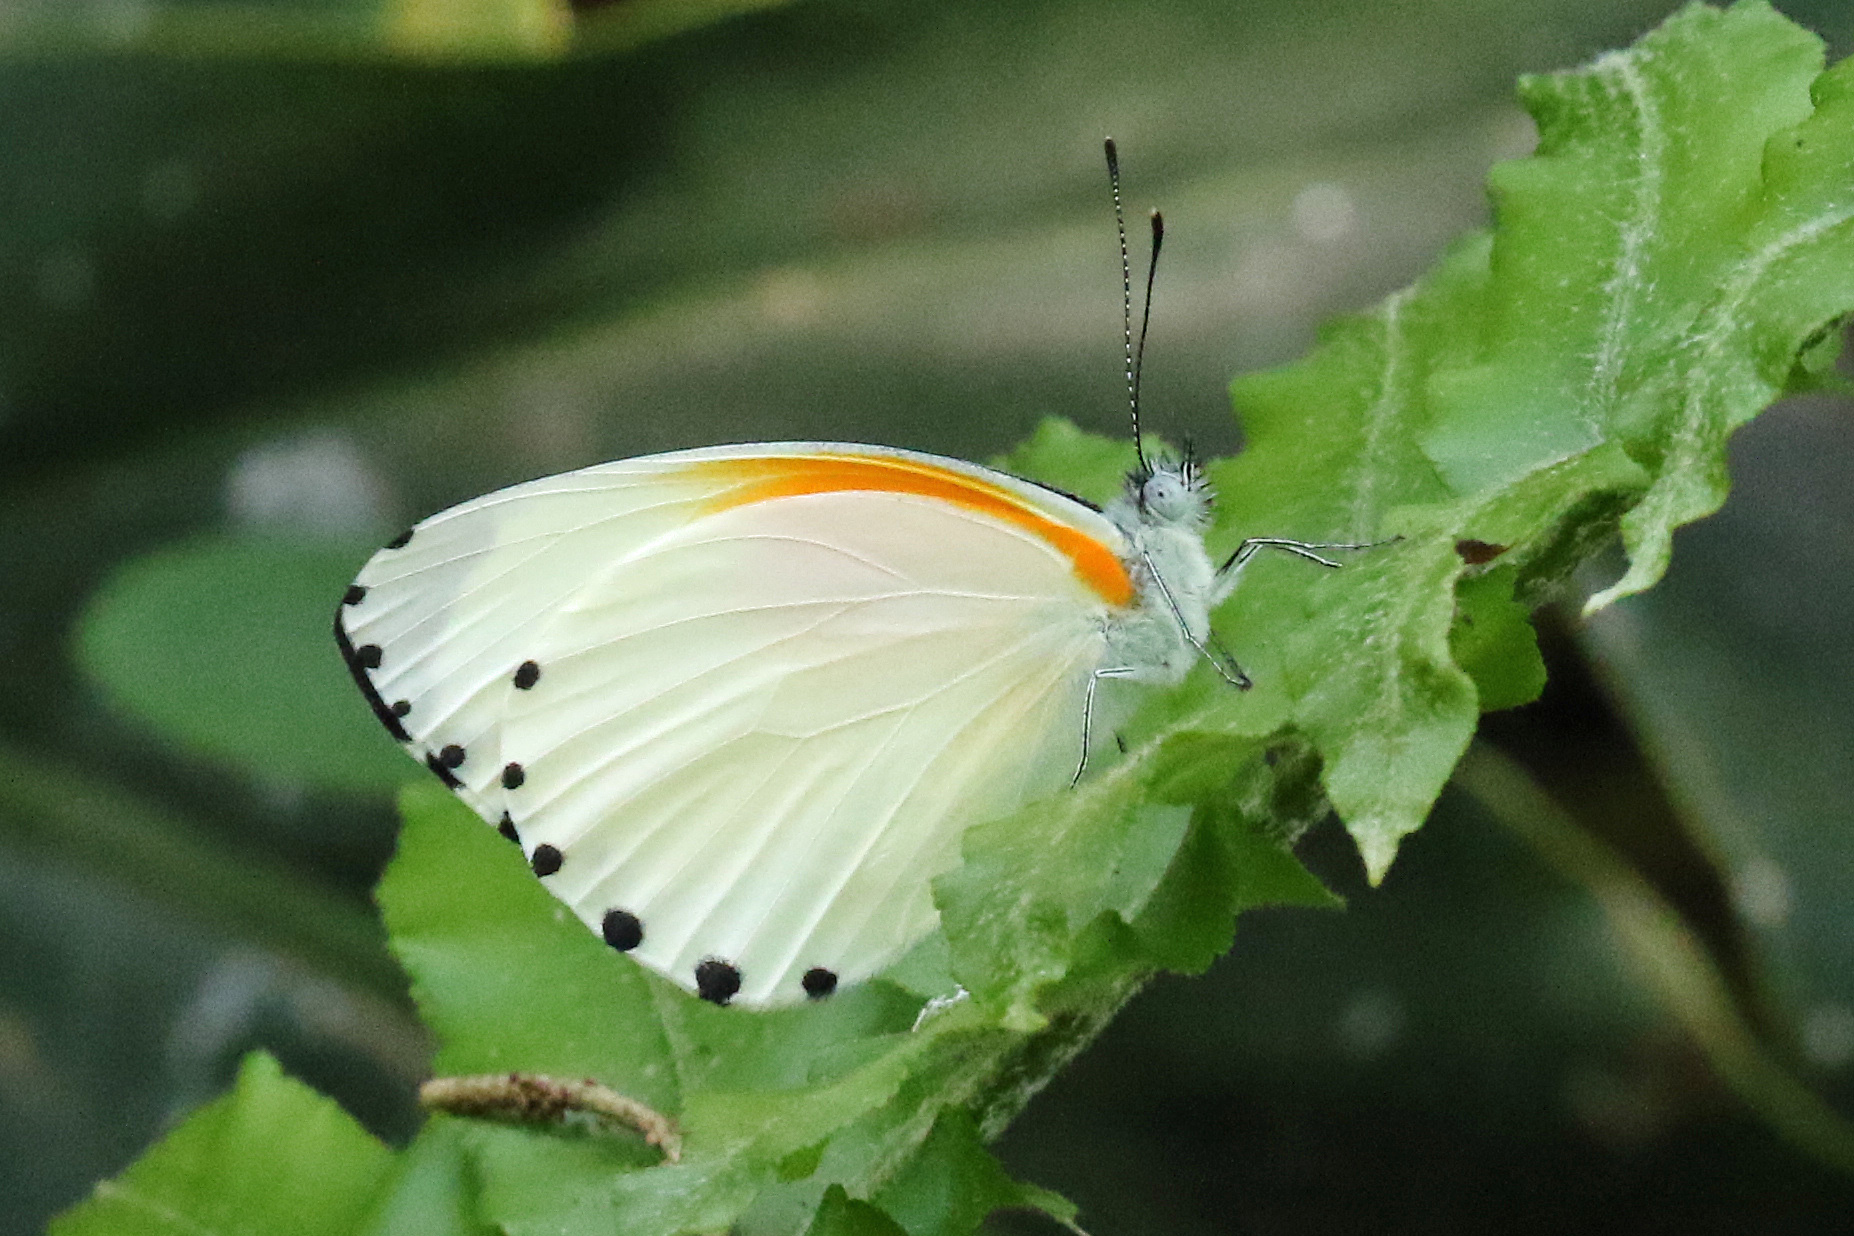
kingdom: Animalia
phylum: Arthropoda
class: Insecta
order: Lepidoptera
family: Pieridae
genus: Mylothris
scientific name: Mylothris rueppellii
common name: Twin dotted border
